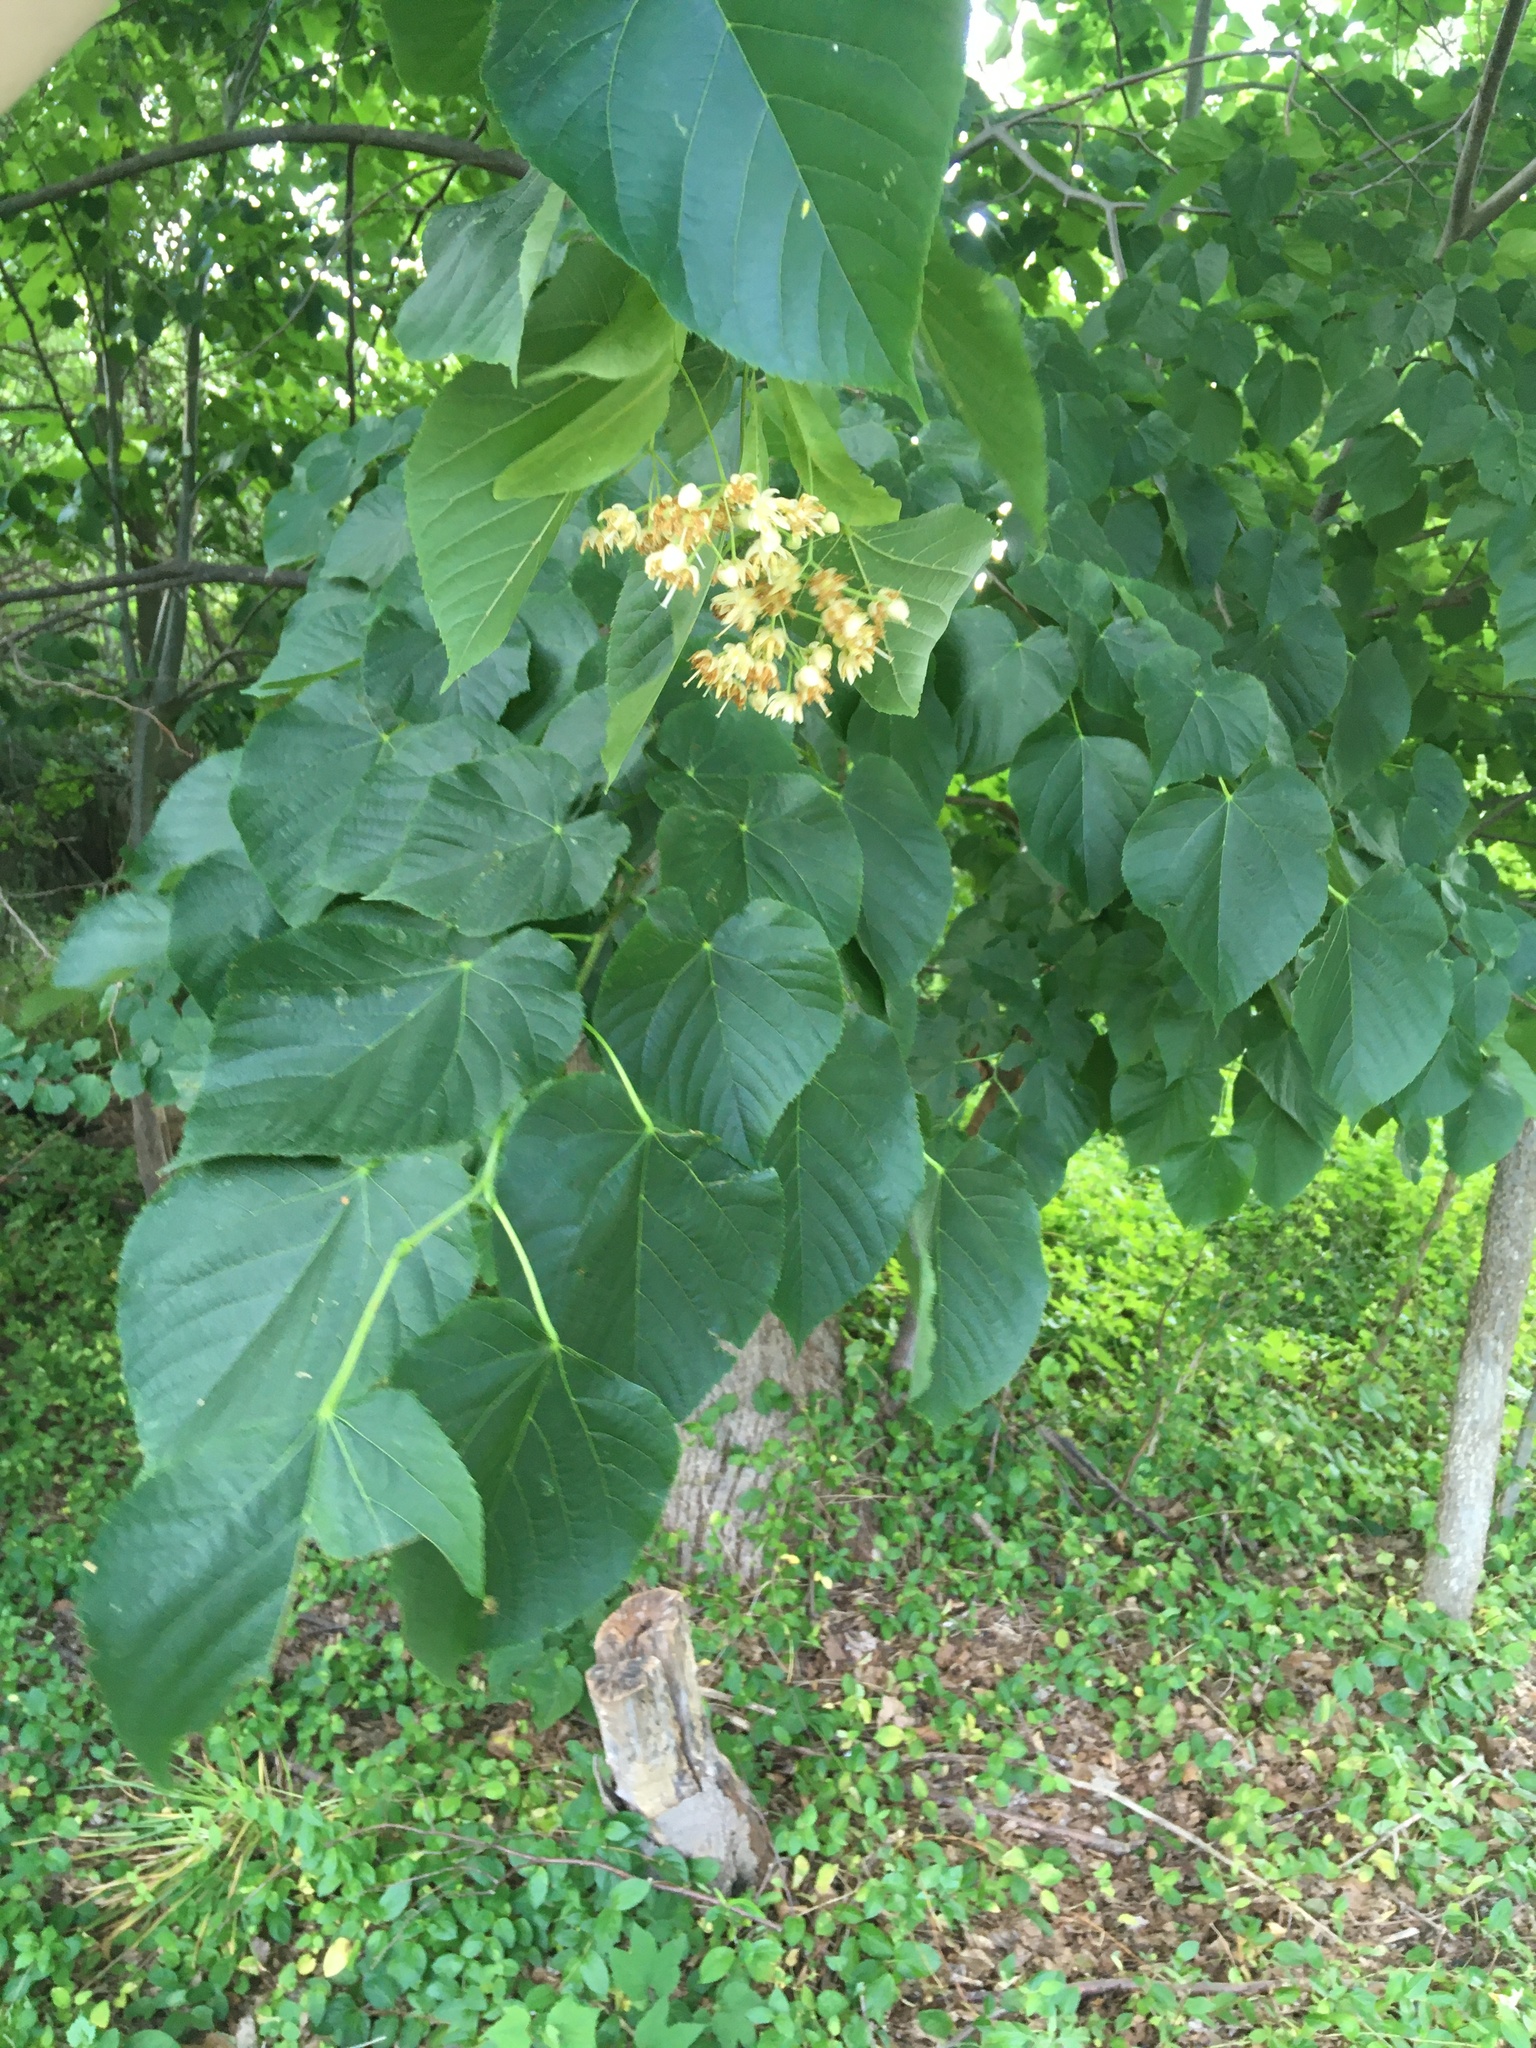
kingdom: Plantae
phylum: Tracheophyta
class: Magnoliopsida
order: Malvales
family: Malvaceae
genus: Tilia
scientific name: Tilia americana
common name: Basswood
